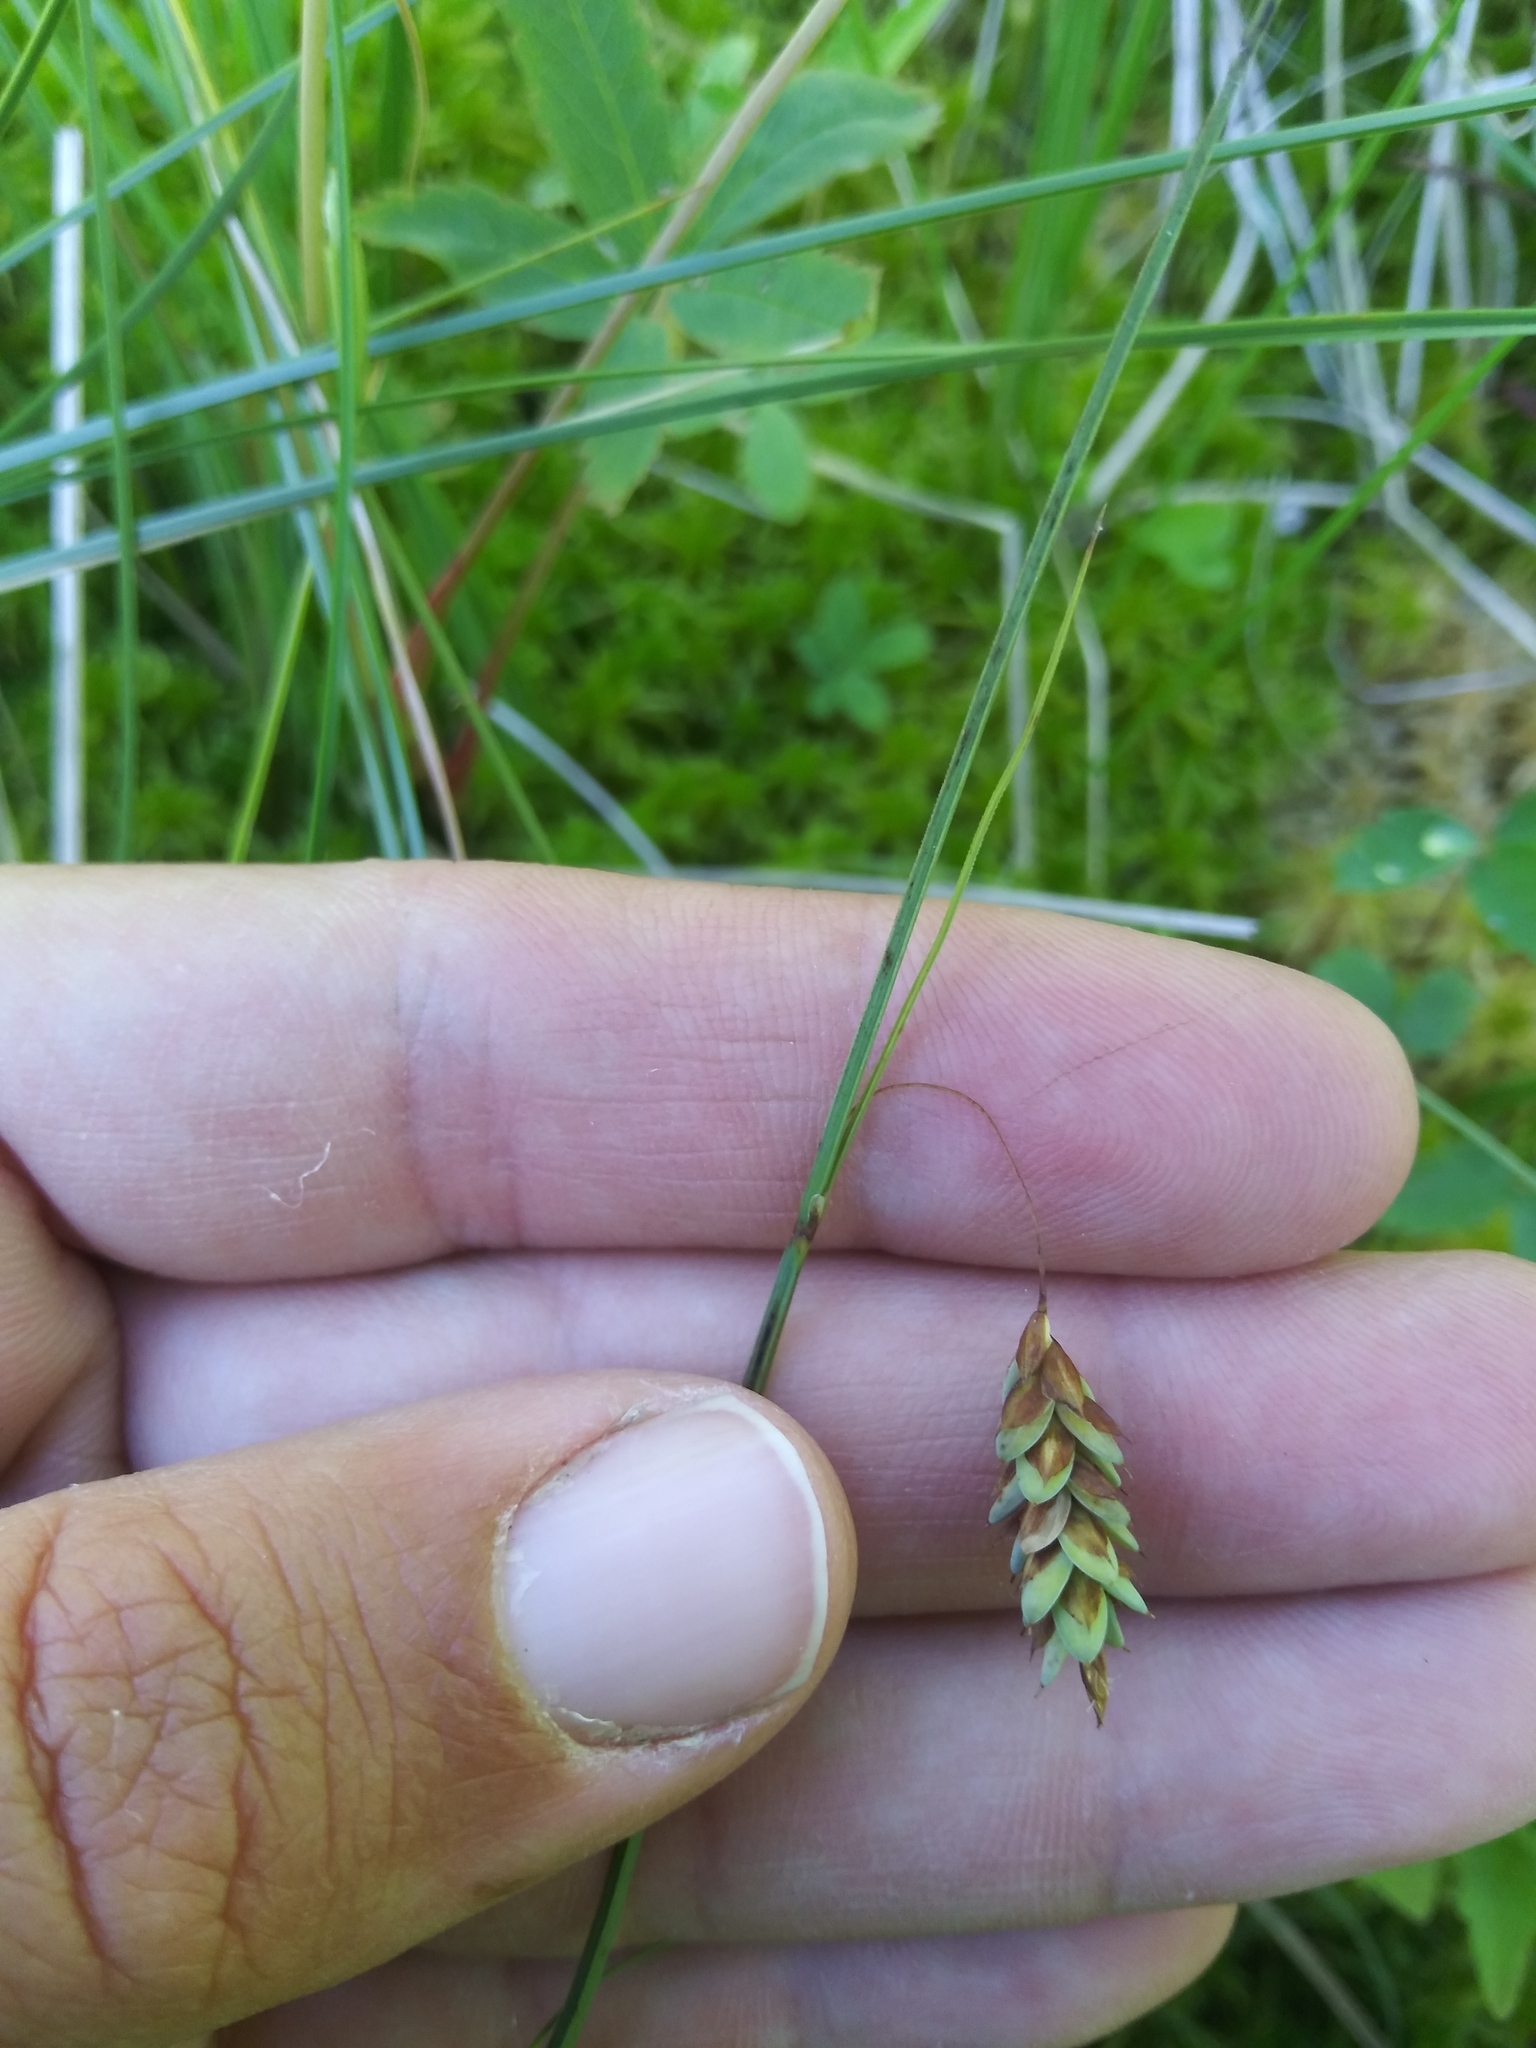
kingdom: Plantae
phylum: Tracheophyta
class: Liliopsida
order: Poales
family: Cyperaceae
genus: Carex
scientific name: Carex limosa
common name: Bog sedge
